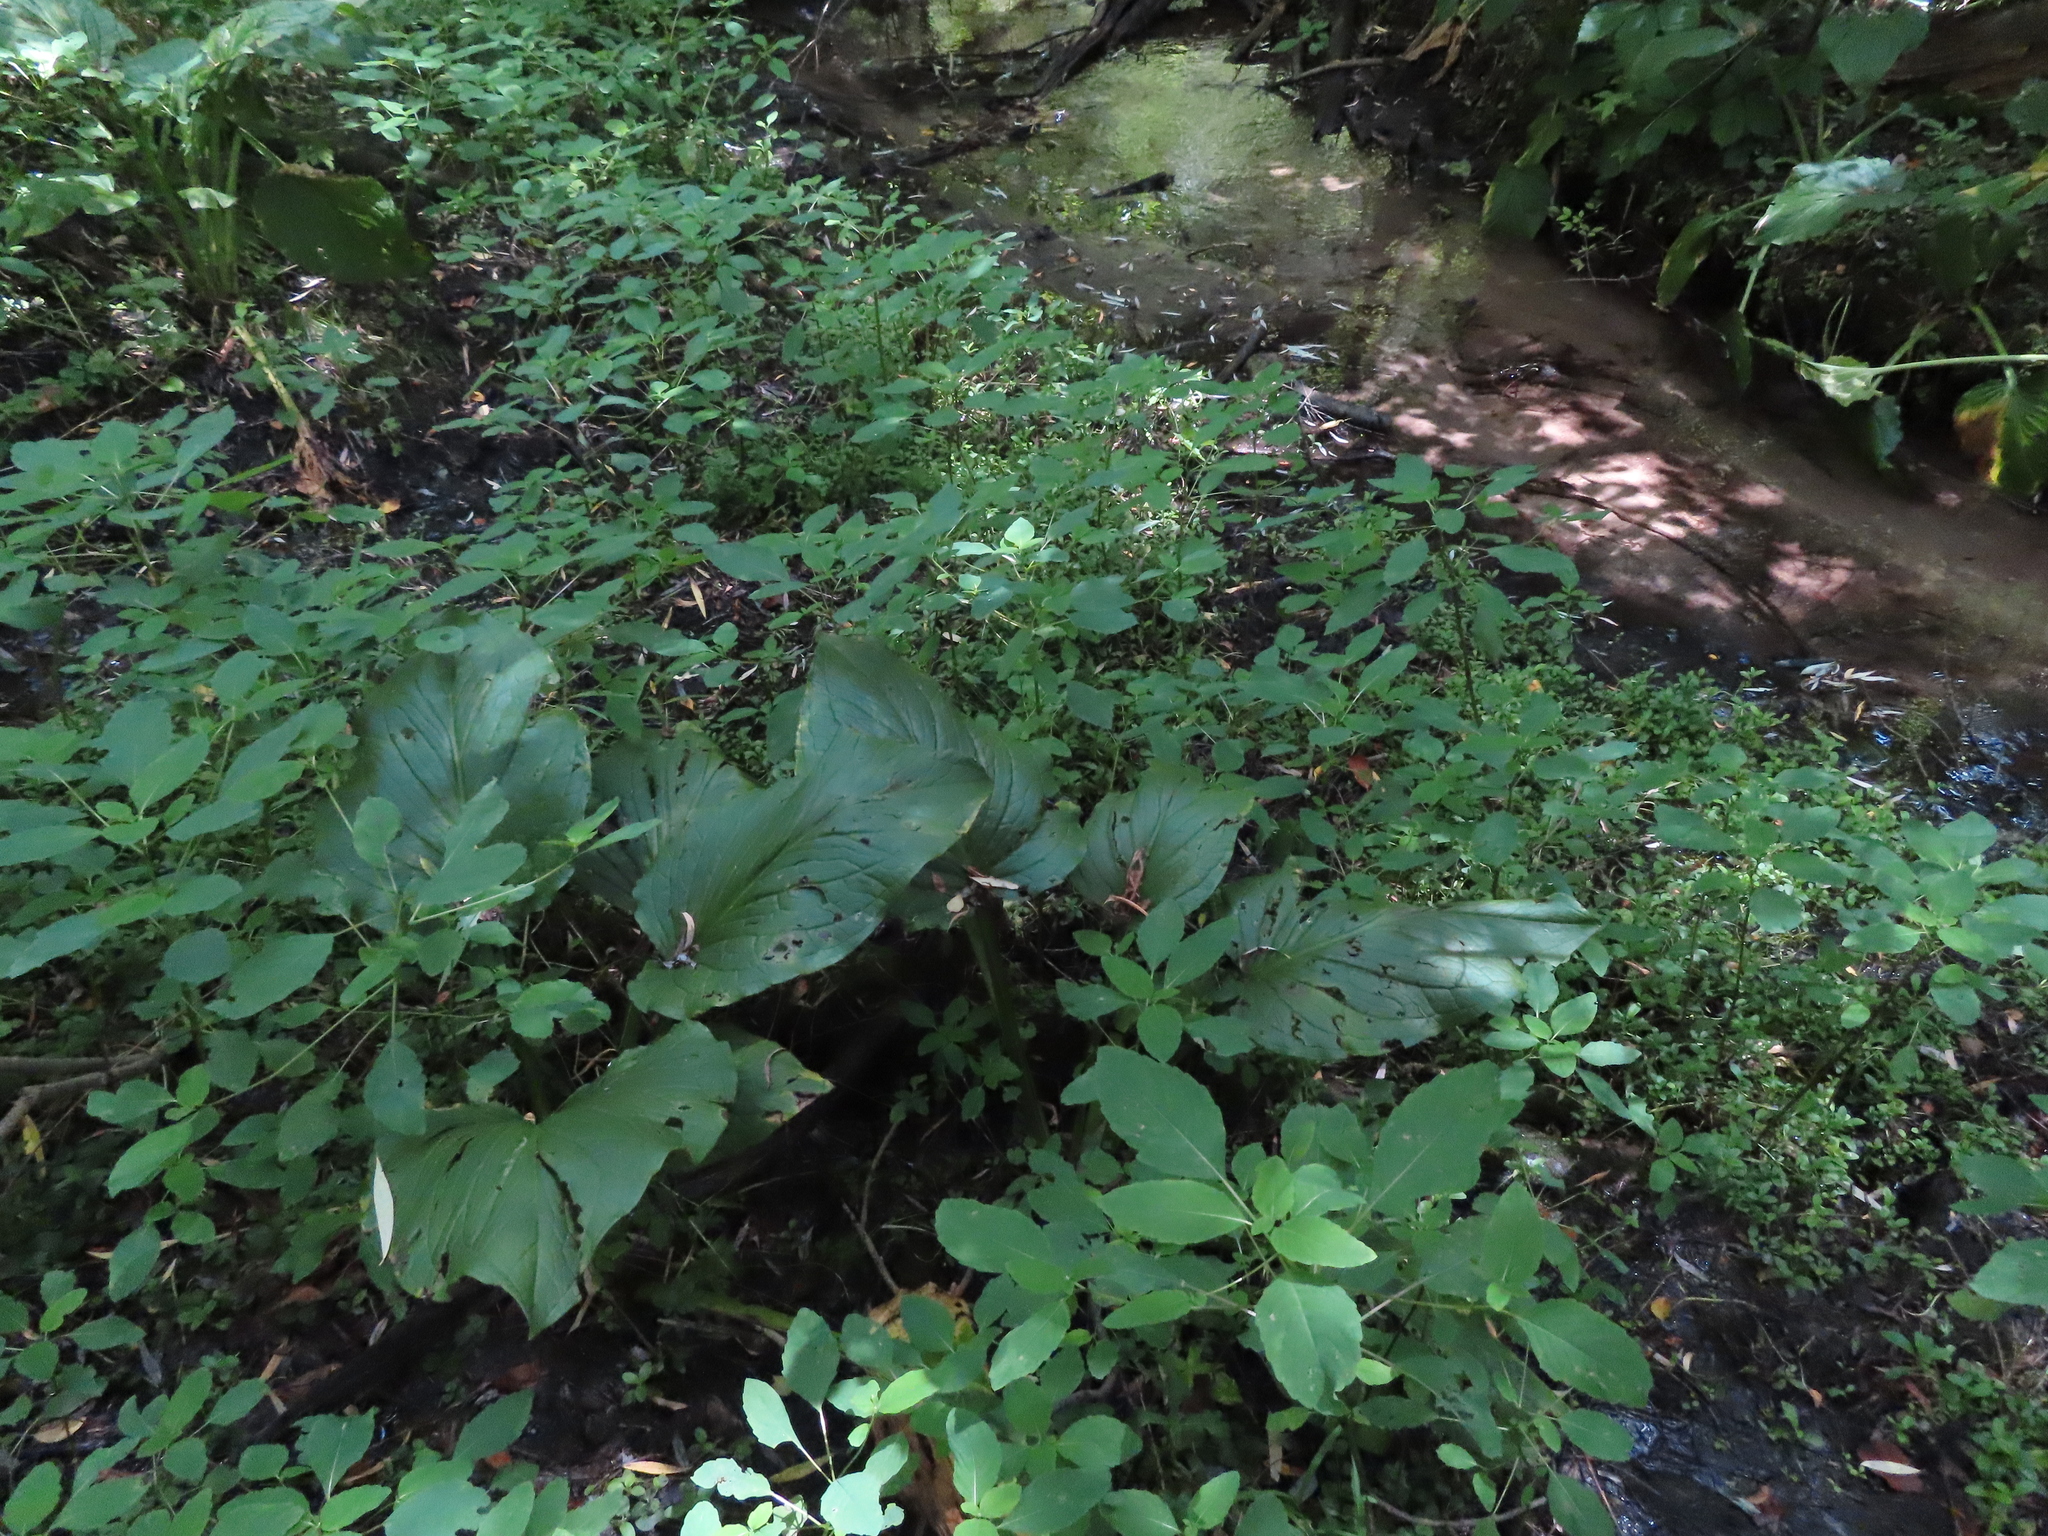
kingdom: Plantae
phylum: Tracheophyta
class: Liliopsida
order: Alismatales
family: Araceae
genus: Symplocarpus
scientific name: Symplocarpus foetidus
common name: Eastern skunk cabbage
